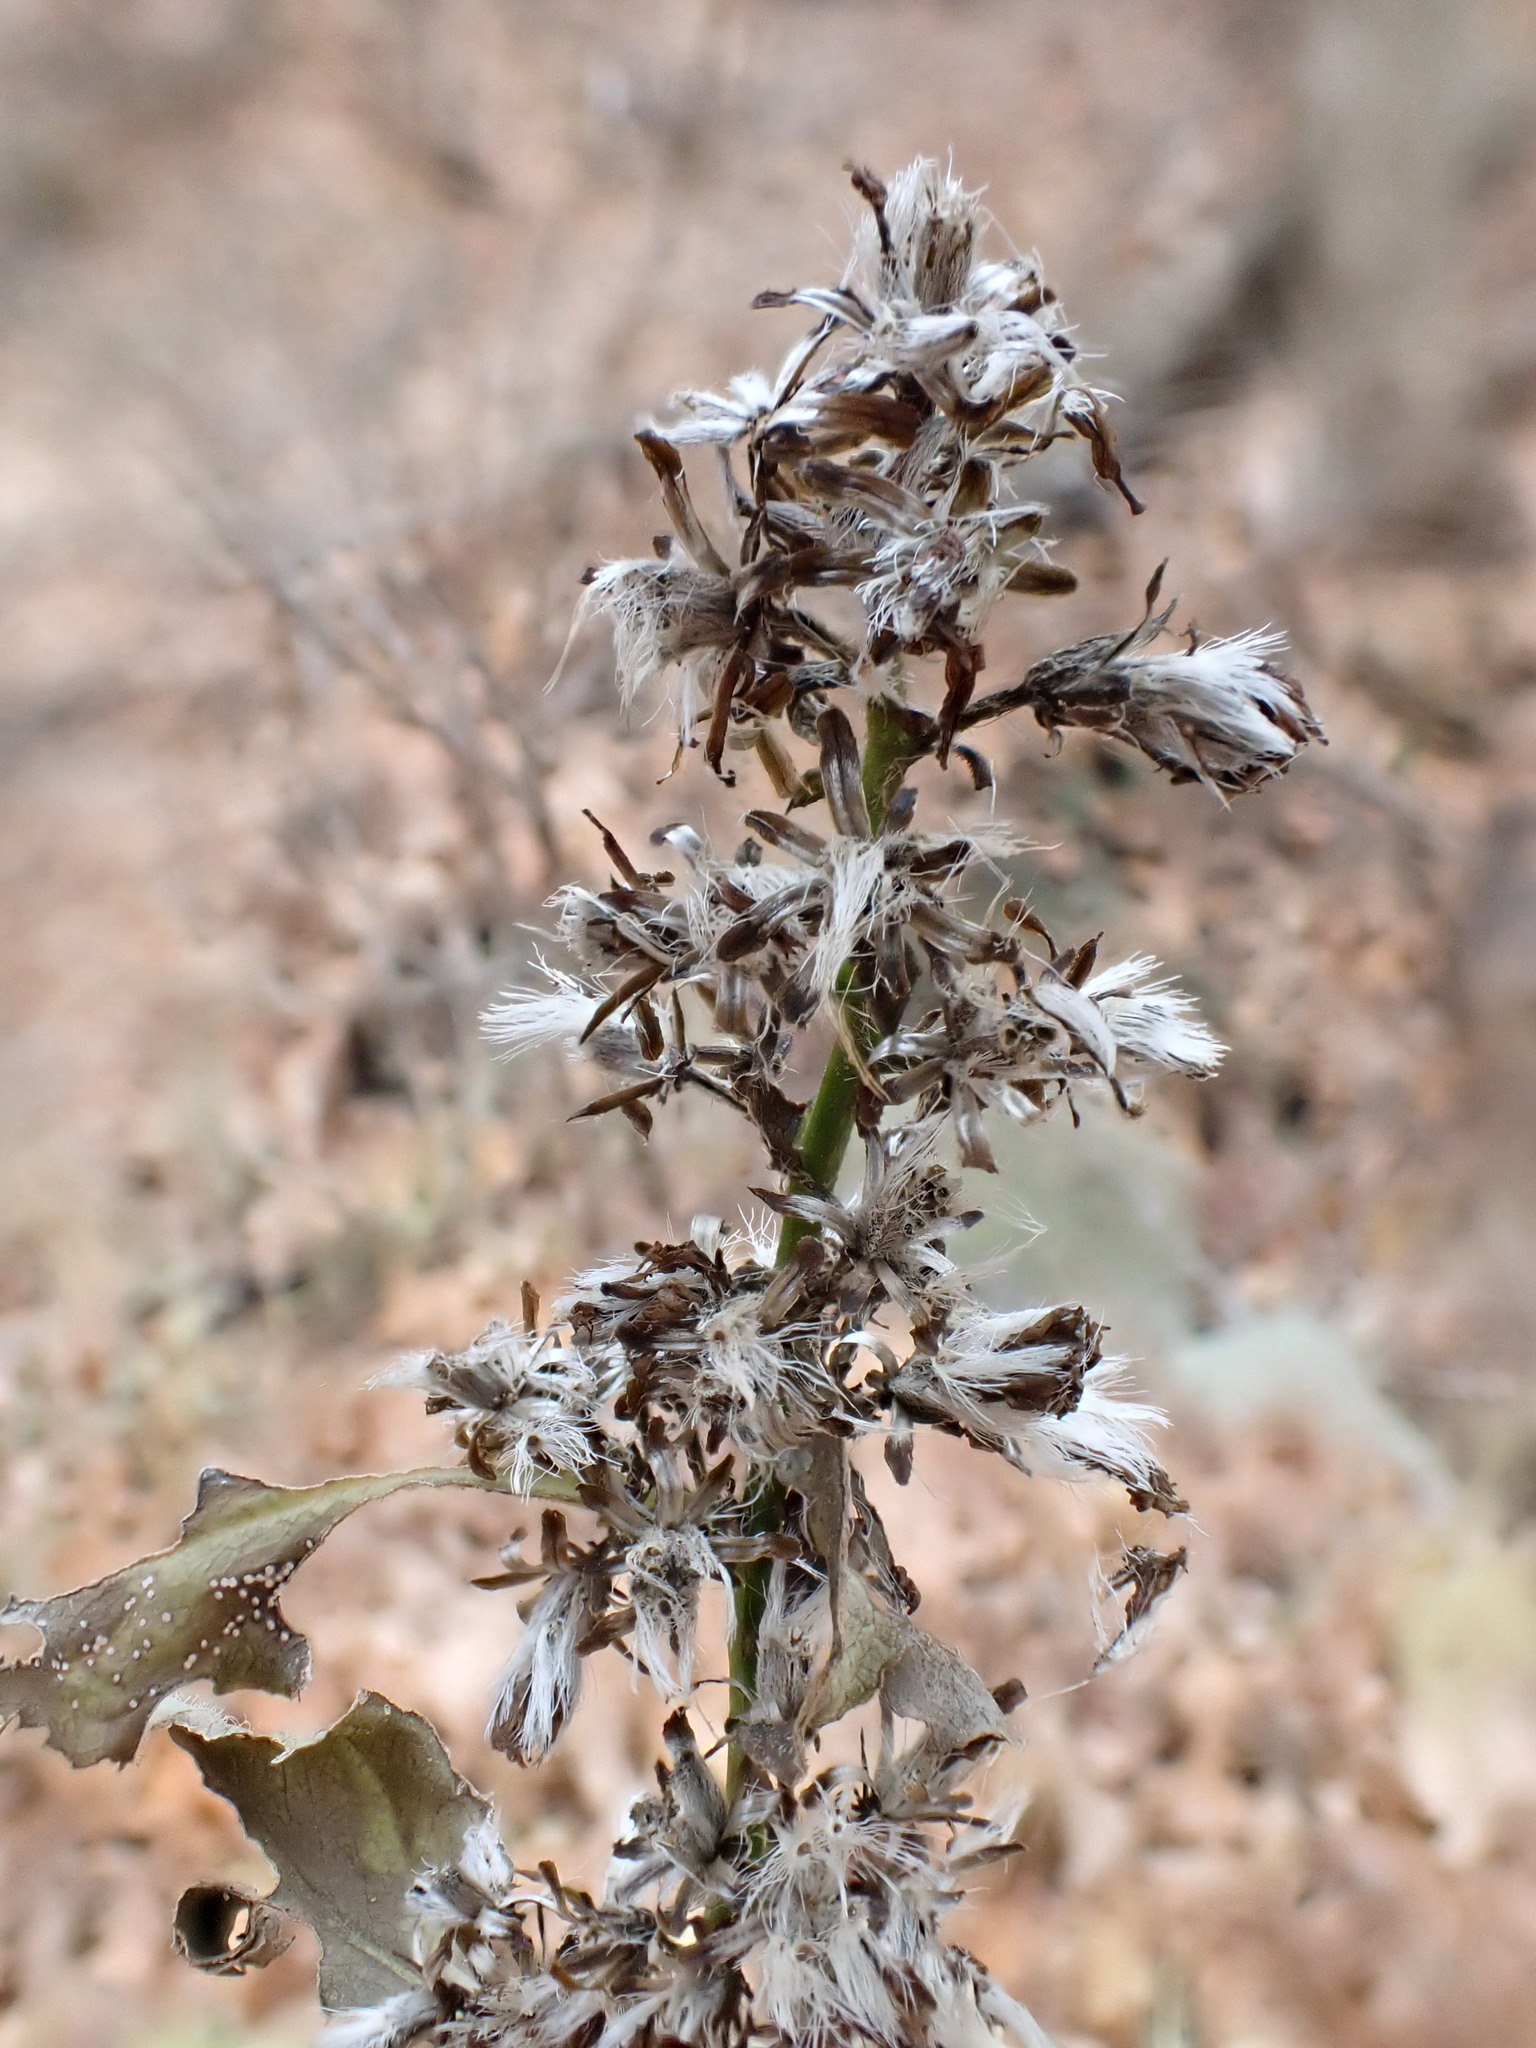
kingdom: Plantae
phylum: Tracheophyta
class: Magnoliopsida
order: Asterales
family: Asteraceae
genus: Solidago
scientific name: Solidago flexicaulis
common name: Zig-zag goldenrod
